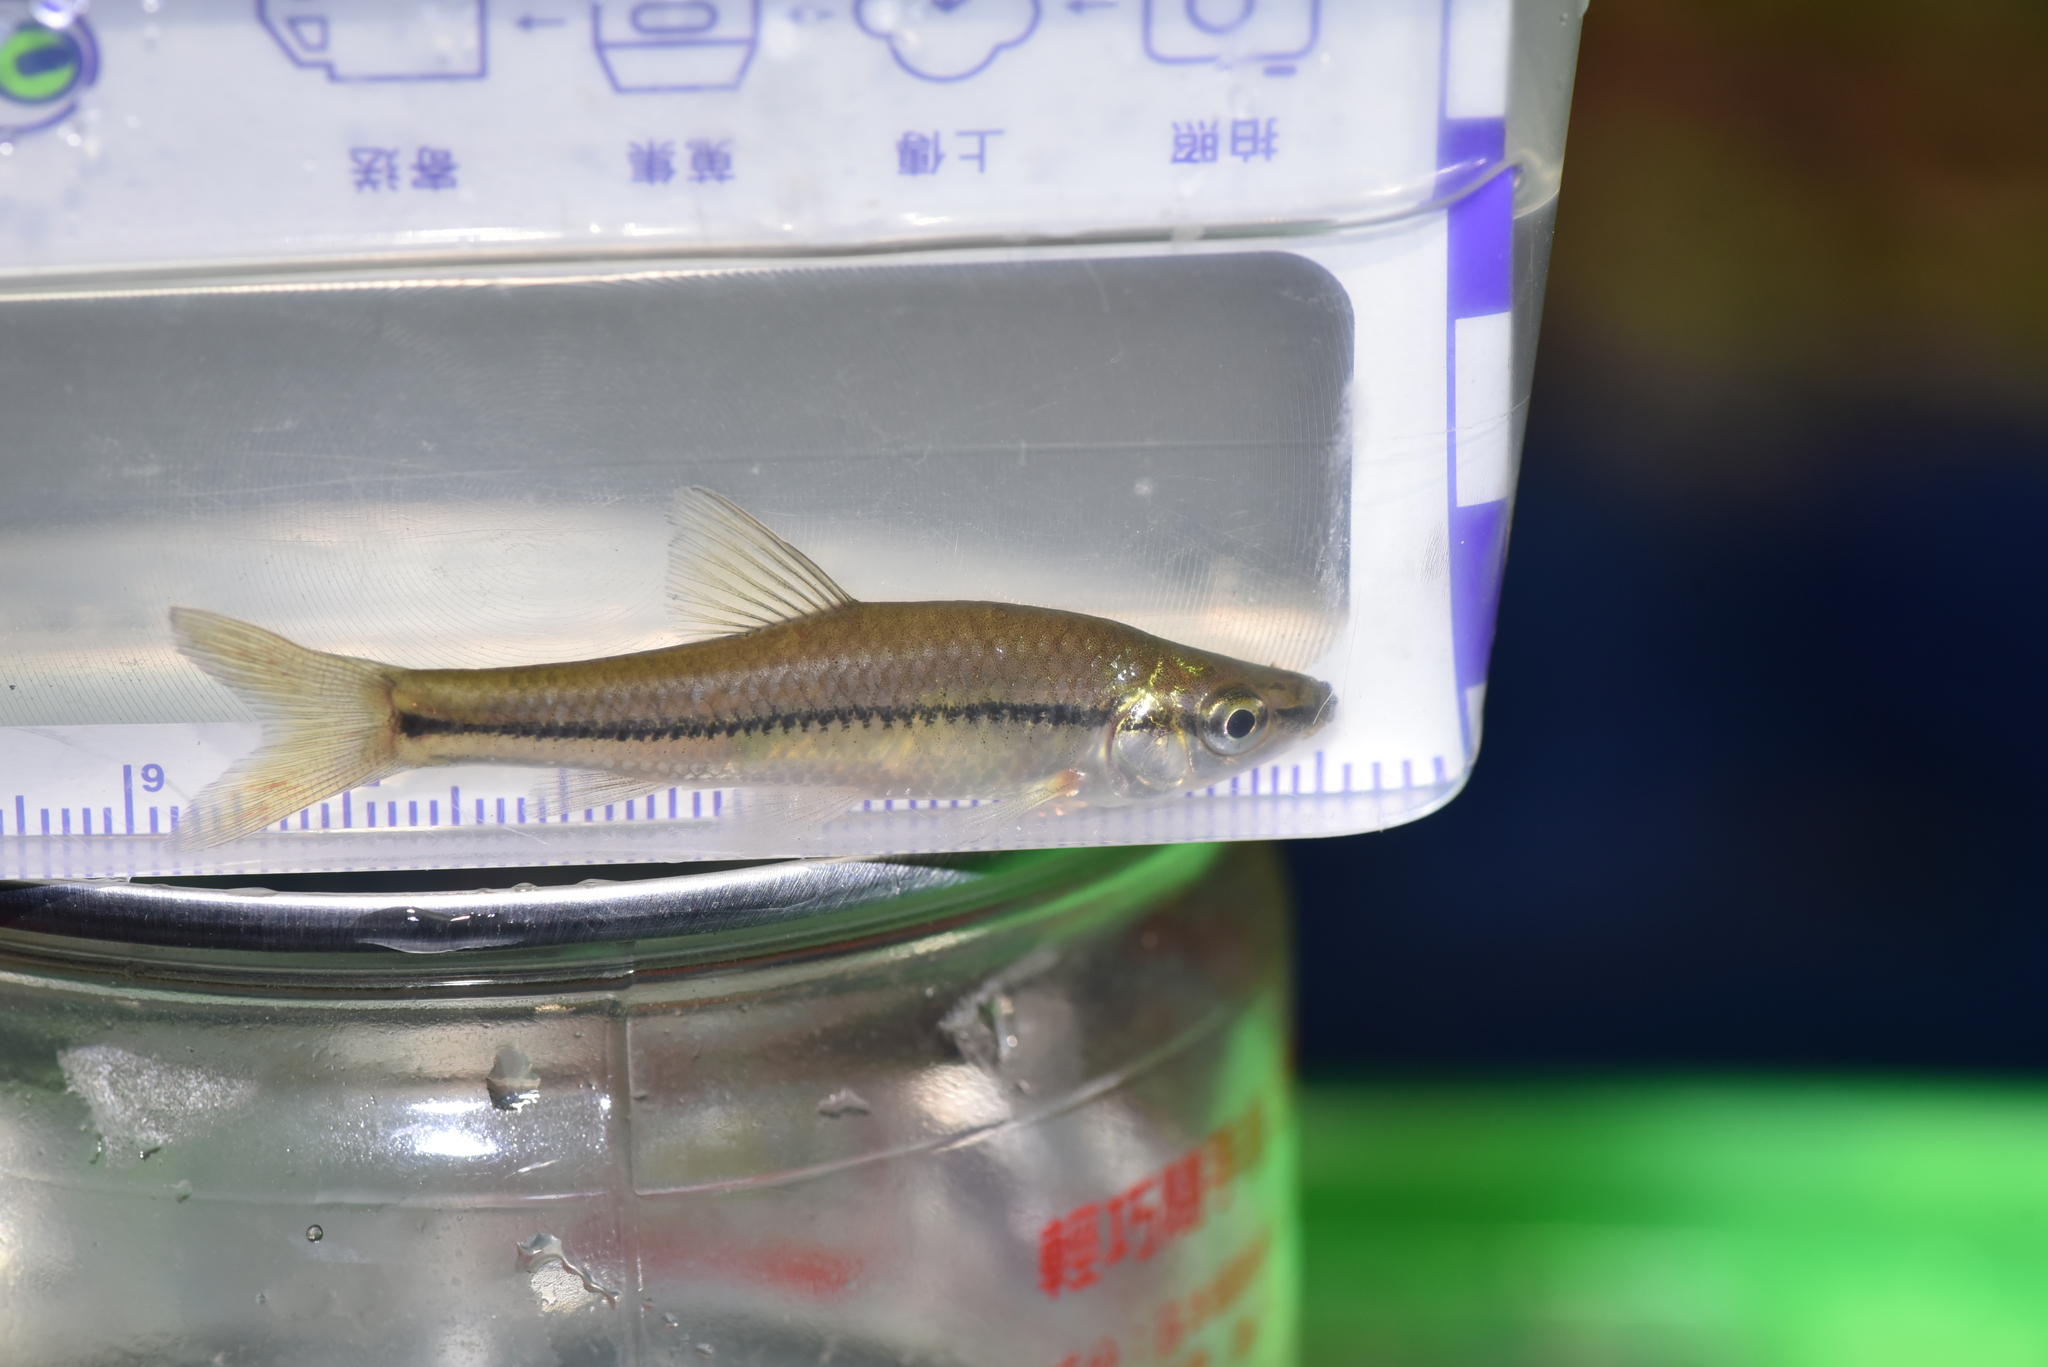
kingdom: Animalia
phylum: Chordata
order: Cypriniformes
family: Cyprinidae
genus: Pseudorasbora
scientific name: Pseudorasbora parva
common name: Topmouth gudgeon
